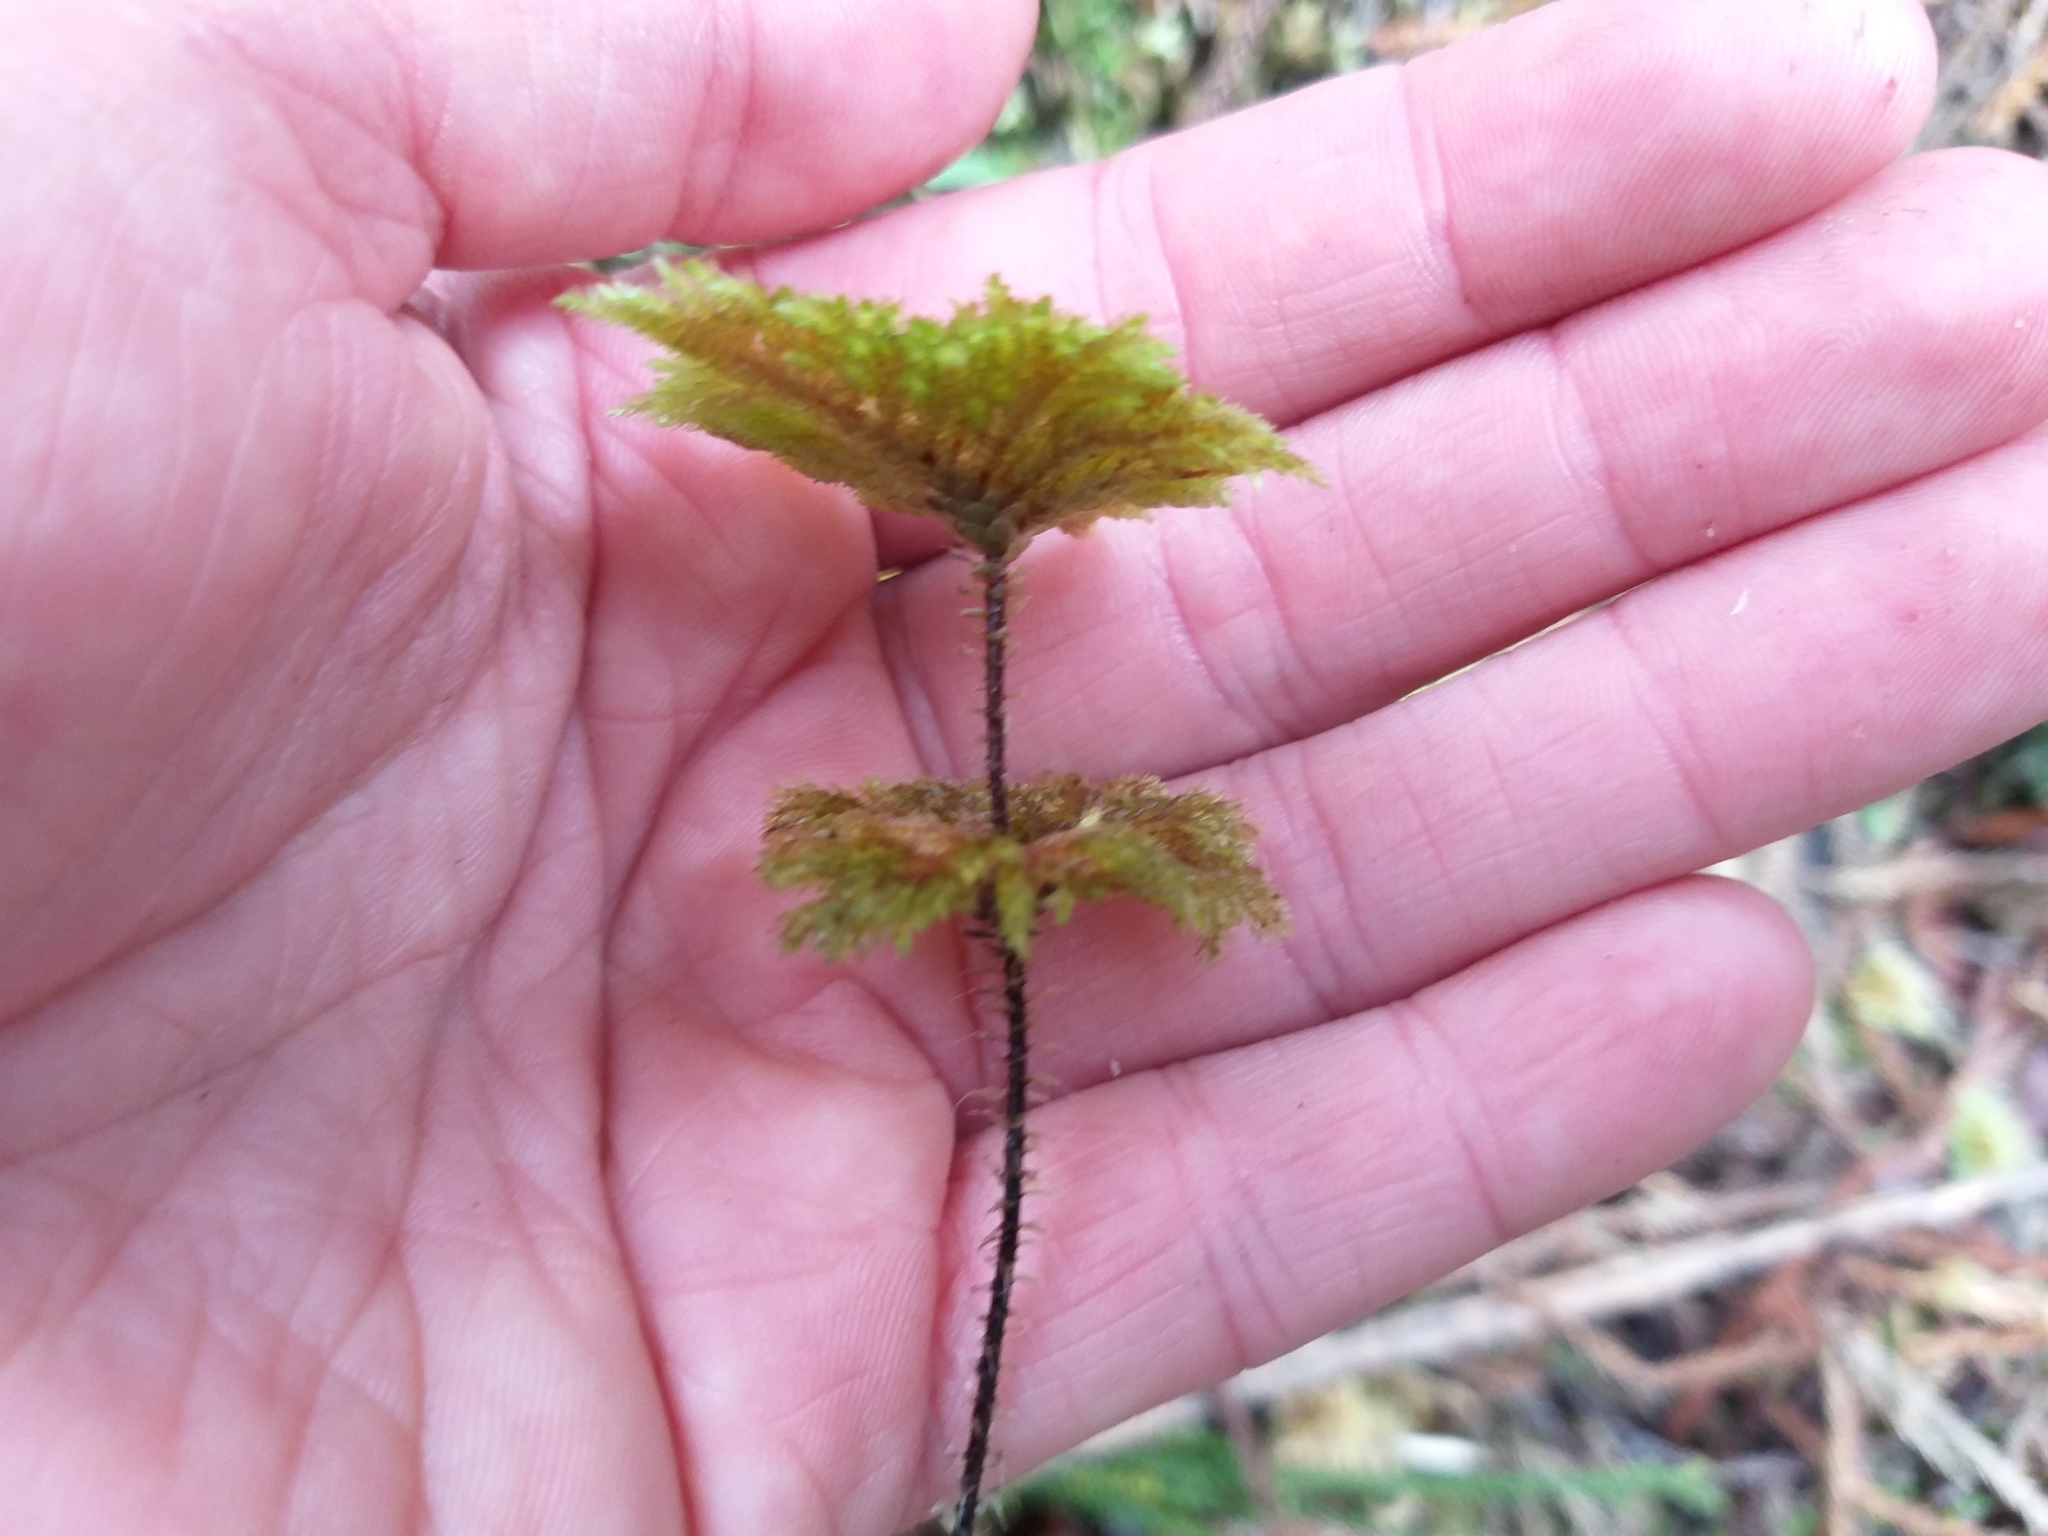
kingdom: Plantae
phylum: Bryophyta
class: Bryopsida
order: Hypnodendrales
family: Spiridentaceae
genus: Hypnodendron
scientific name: Hypnodendron arcuatum
